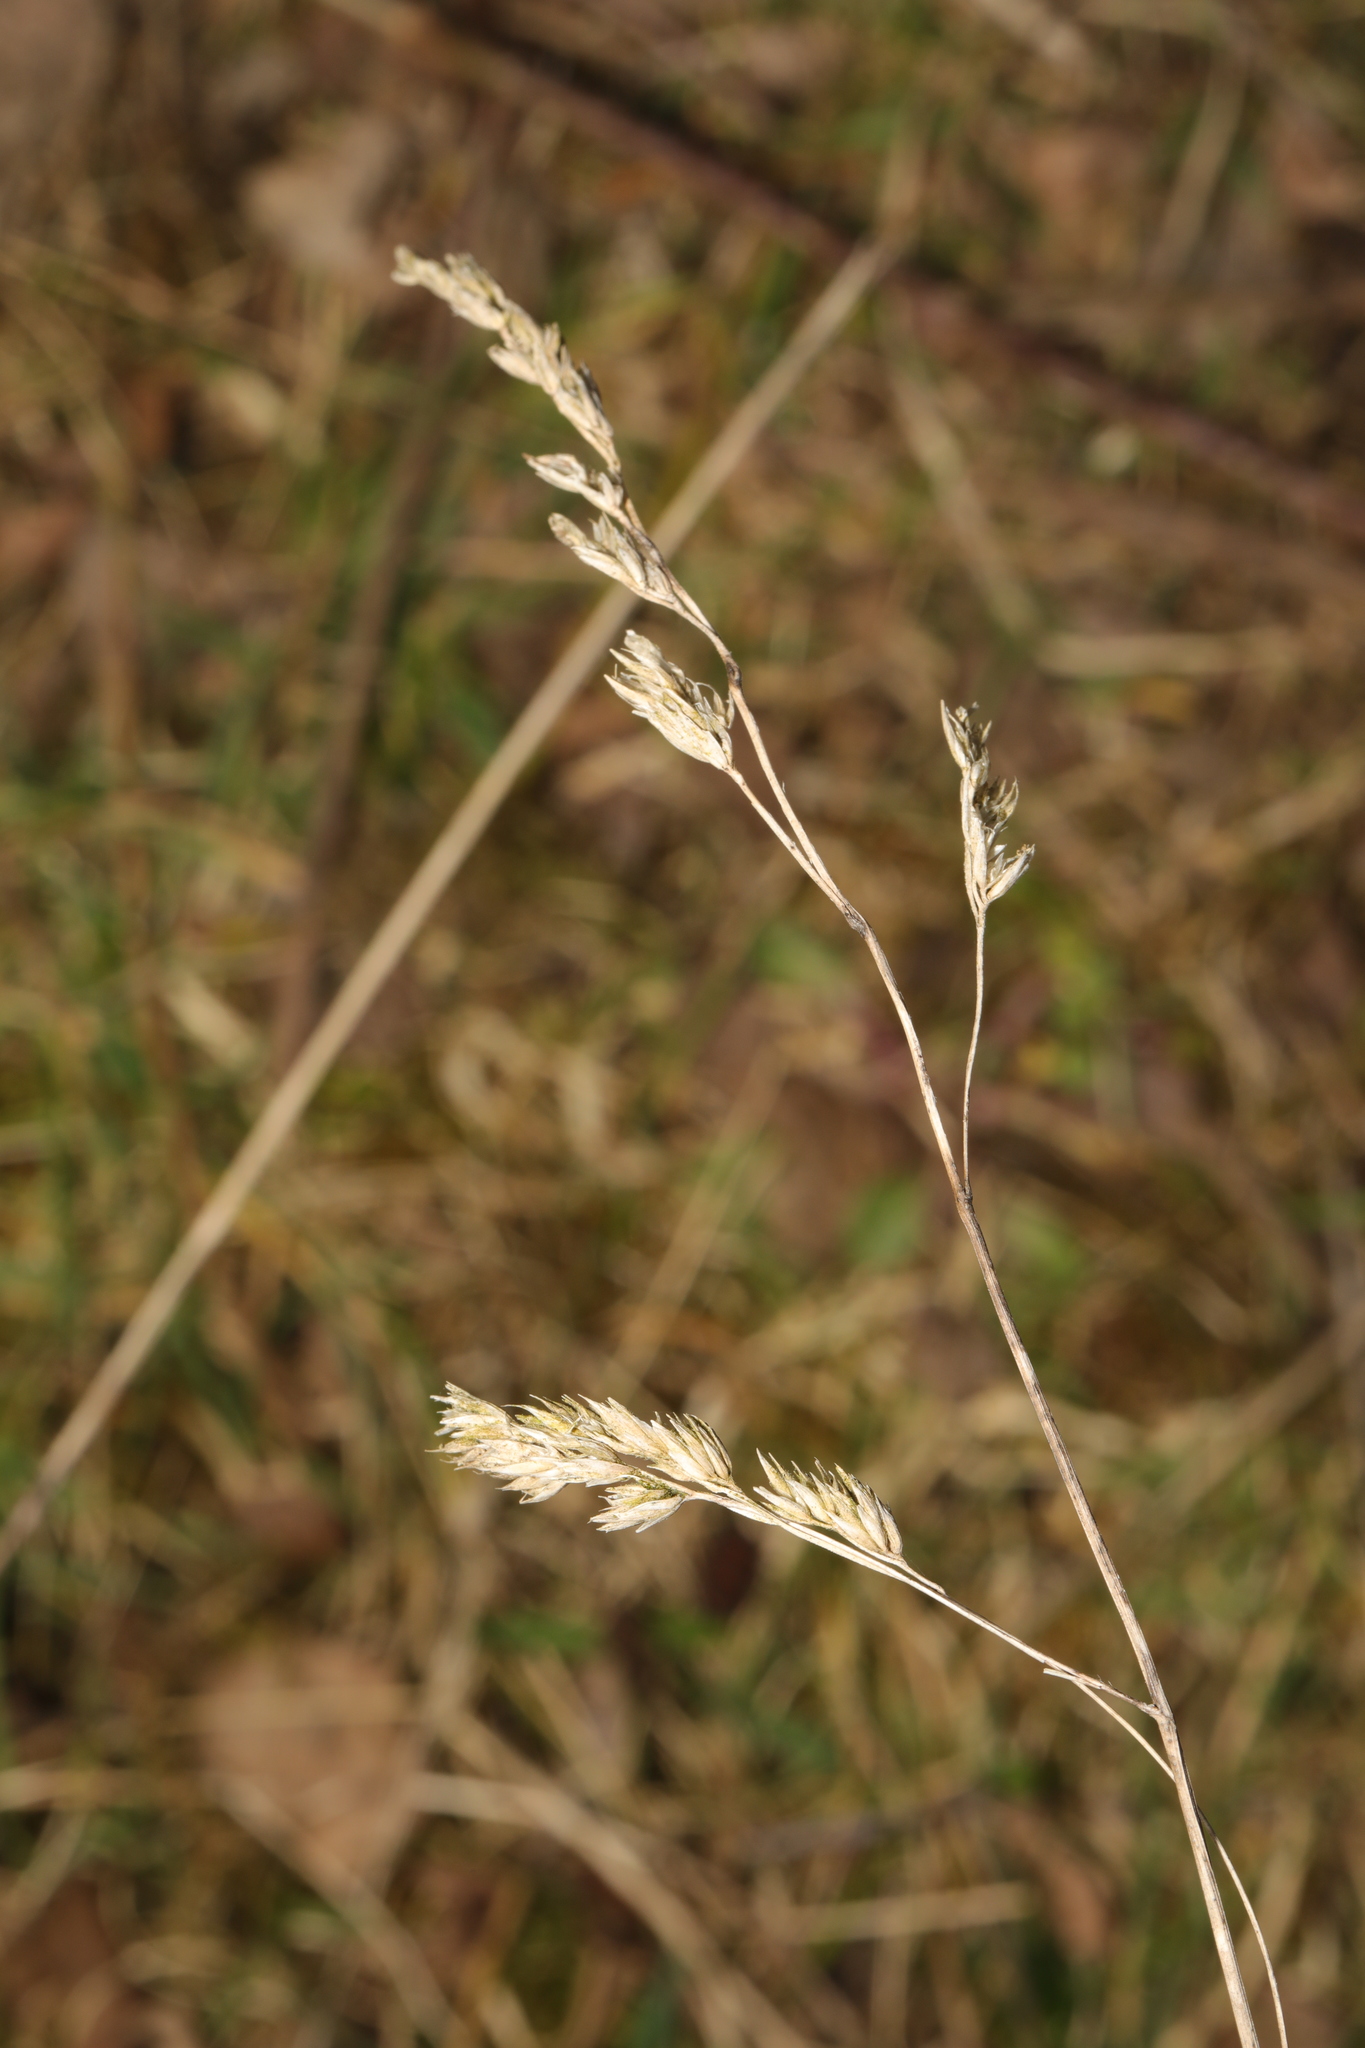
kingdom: Plantae
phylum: Tracheophyta
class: Liliopsida
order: Poales
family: Poaceae
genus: Dactylis
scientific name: Dactylis glomerata
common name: Orchardgrass
